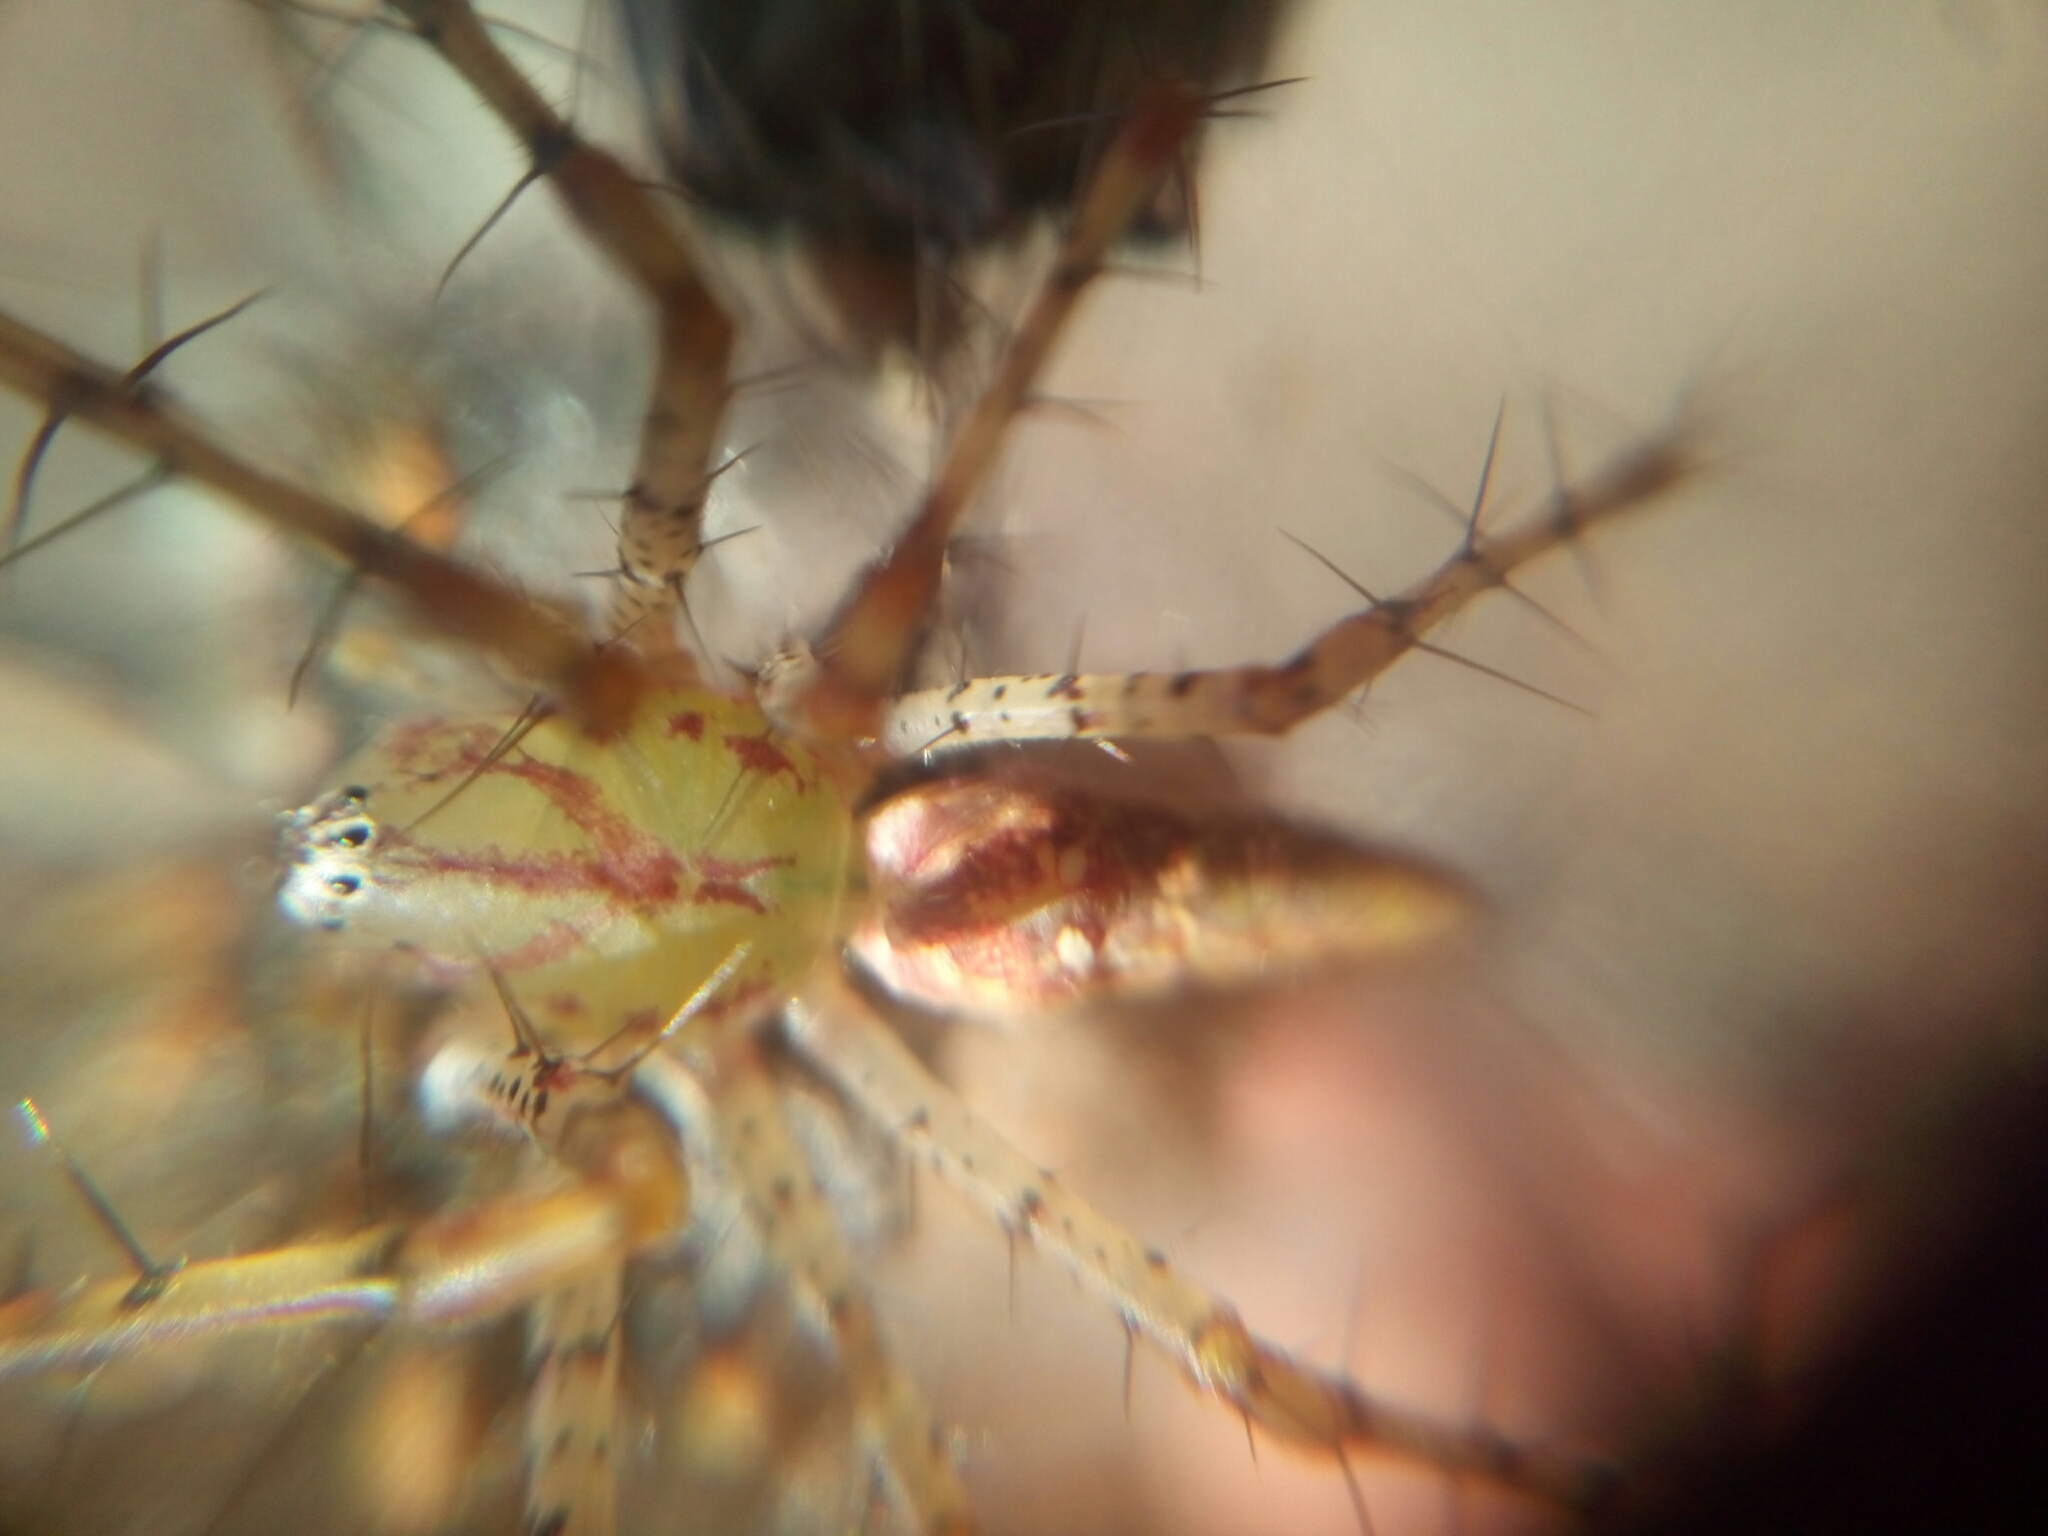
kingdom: Animalia
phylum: Arthropoda
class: Arachnida
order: Araneae
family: Oxyopidae
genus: Peucetia
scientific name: Peucetia viridans
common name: Lynx spiders
